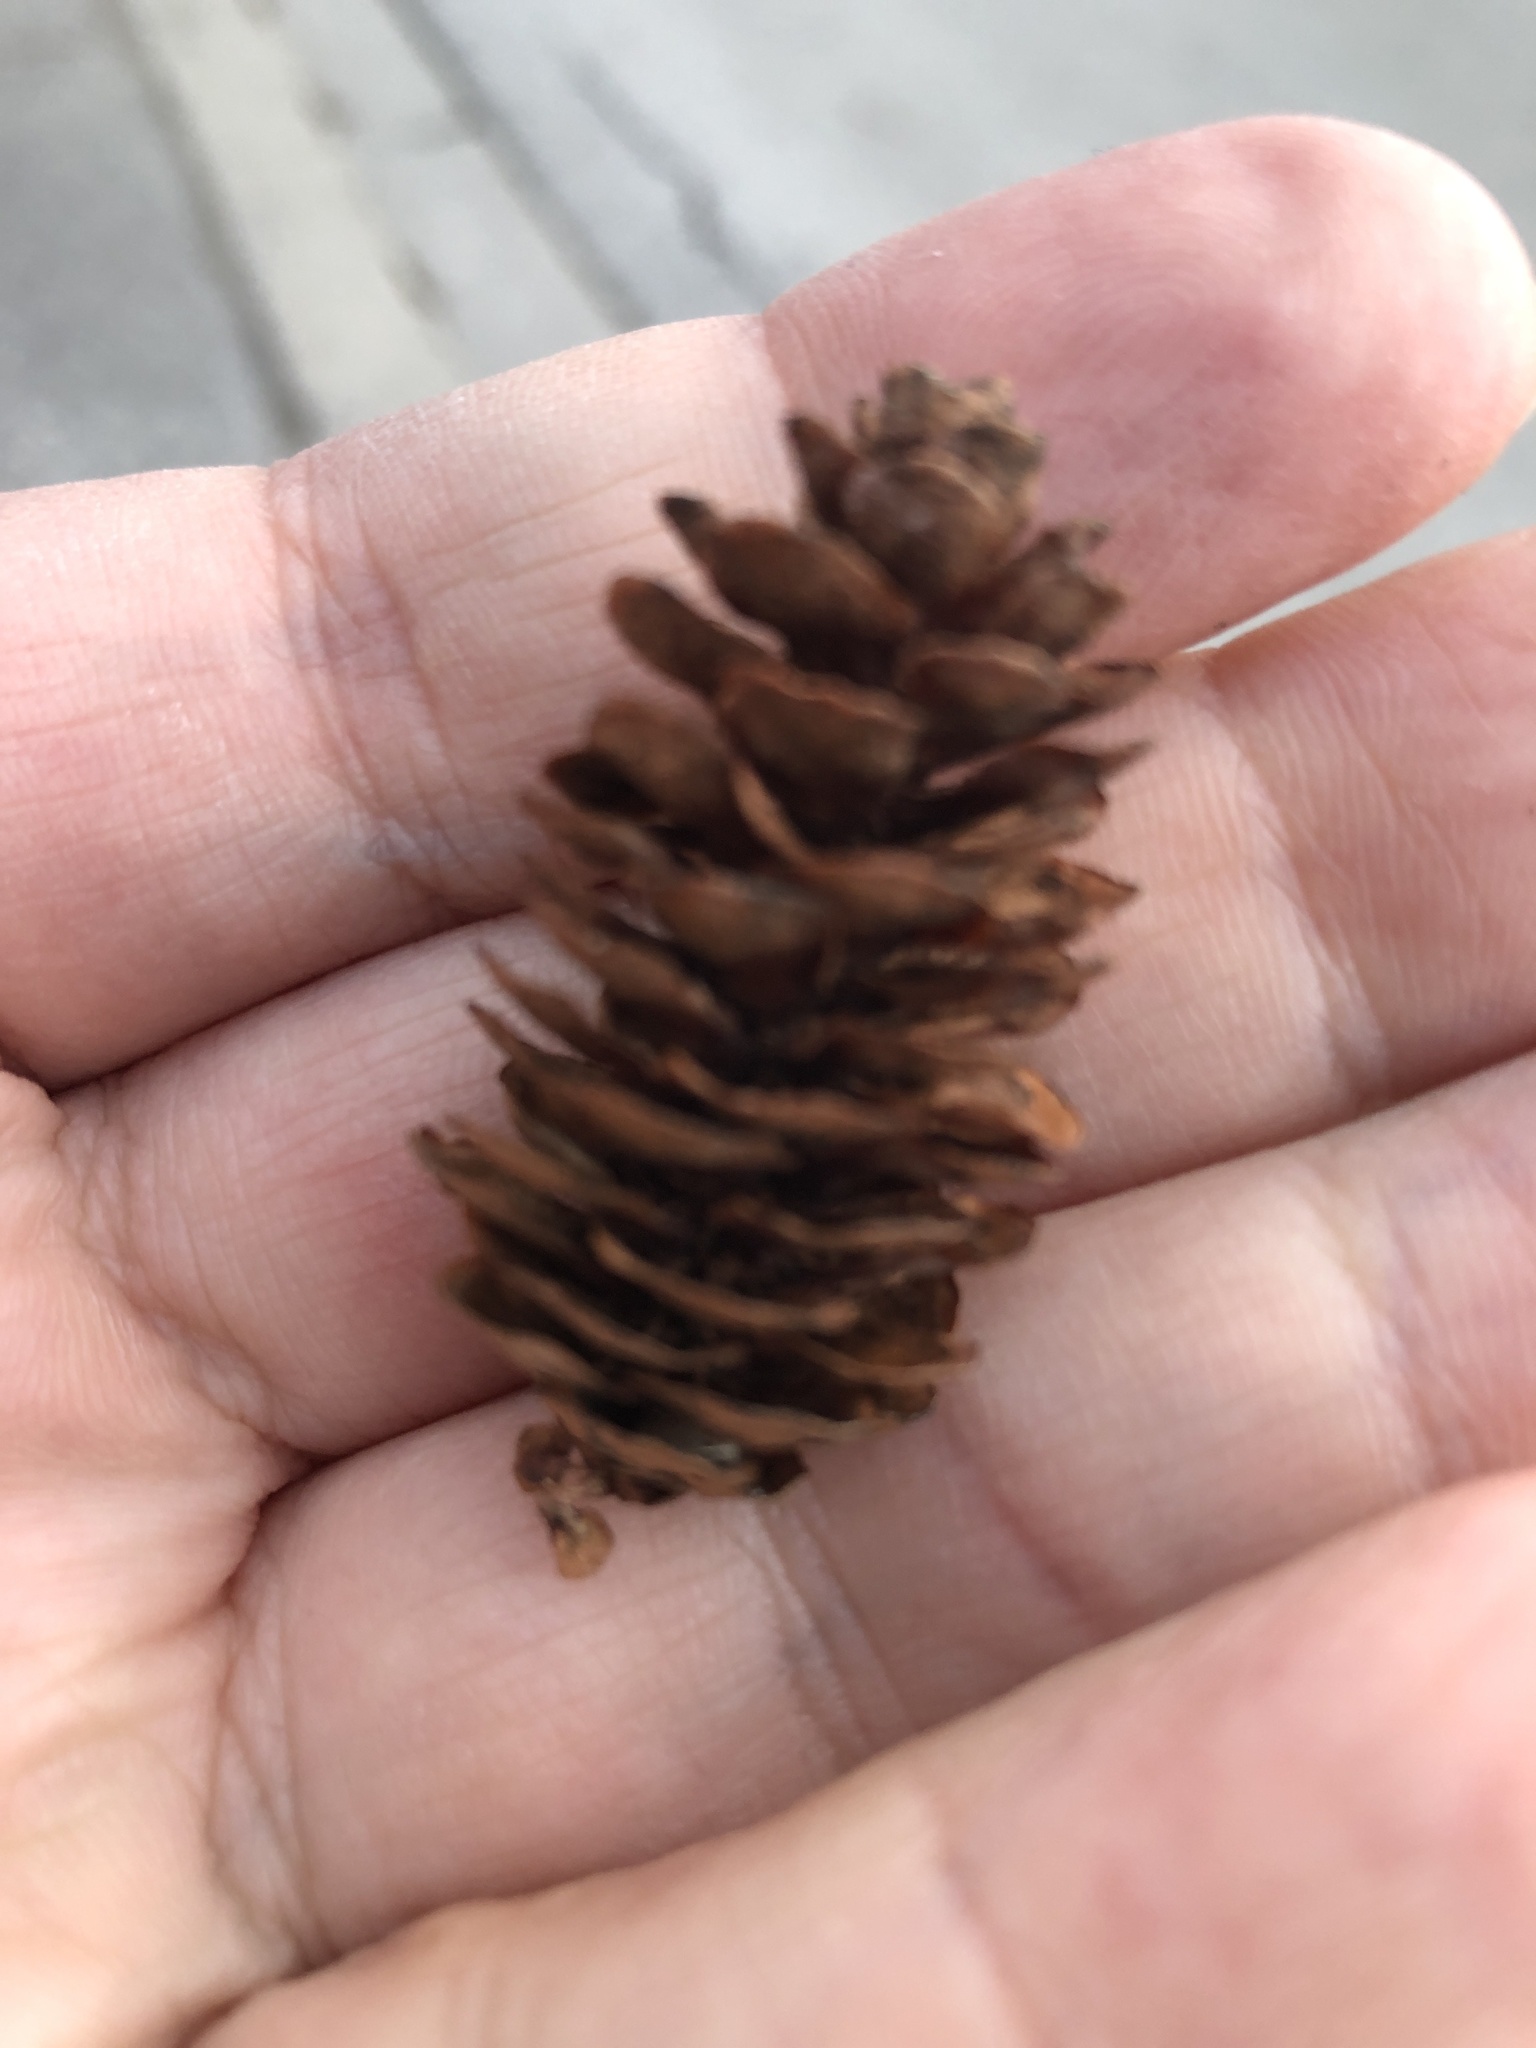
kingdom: Plantae
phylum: Tracheophyta
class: Pinopsida
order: Pinales
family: Pinaceae
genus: Picea
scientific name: Picea glauca
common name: White spruce
